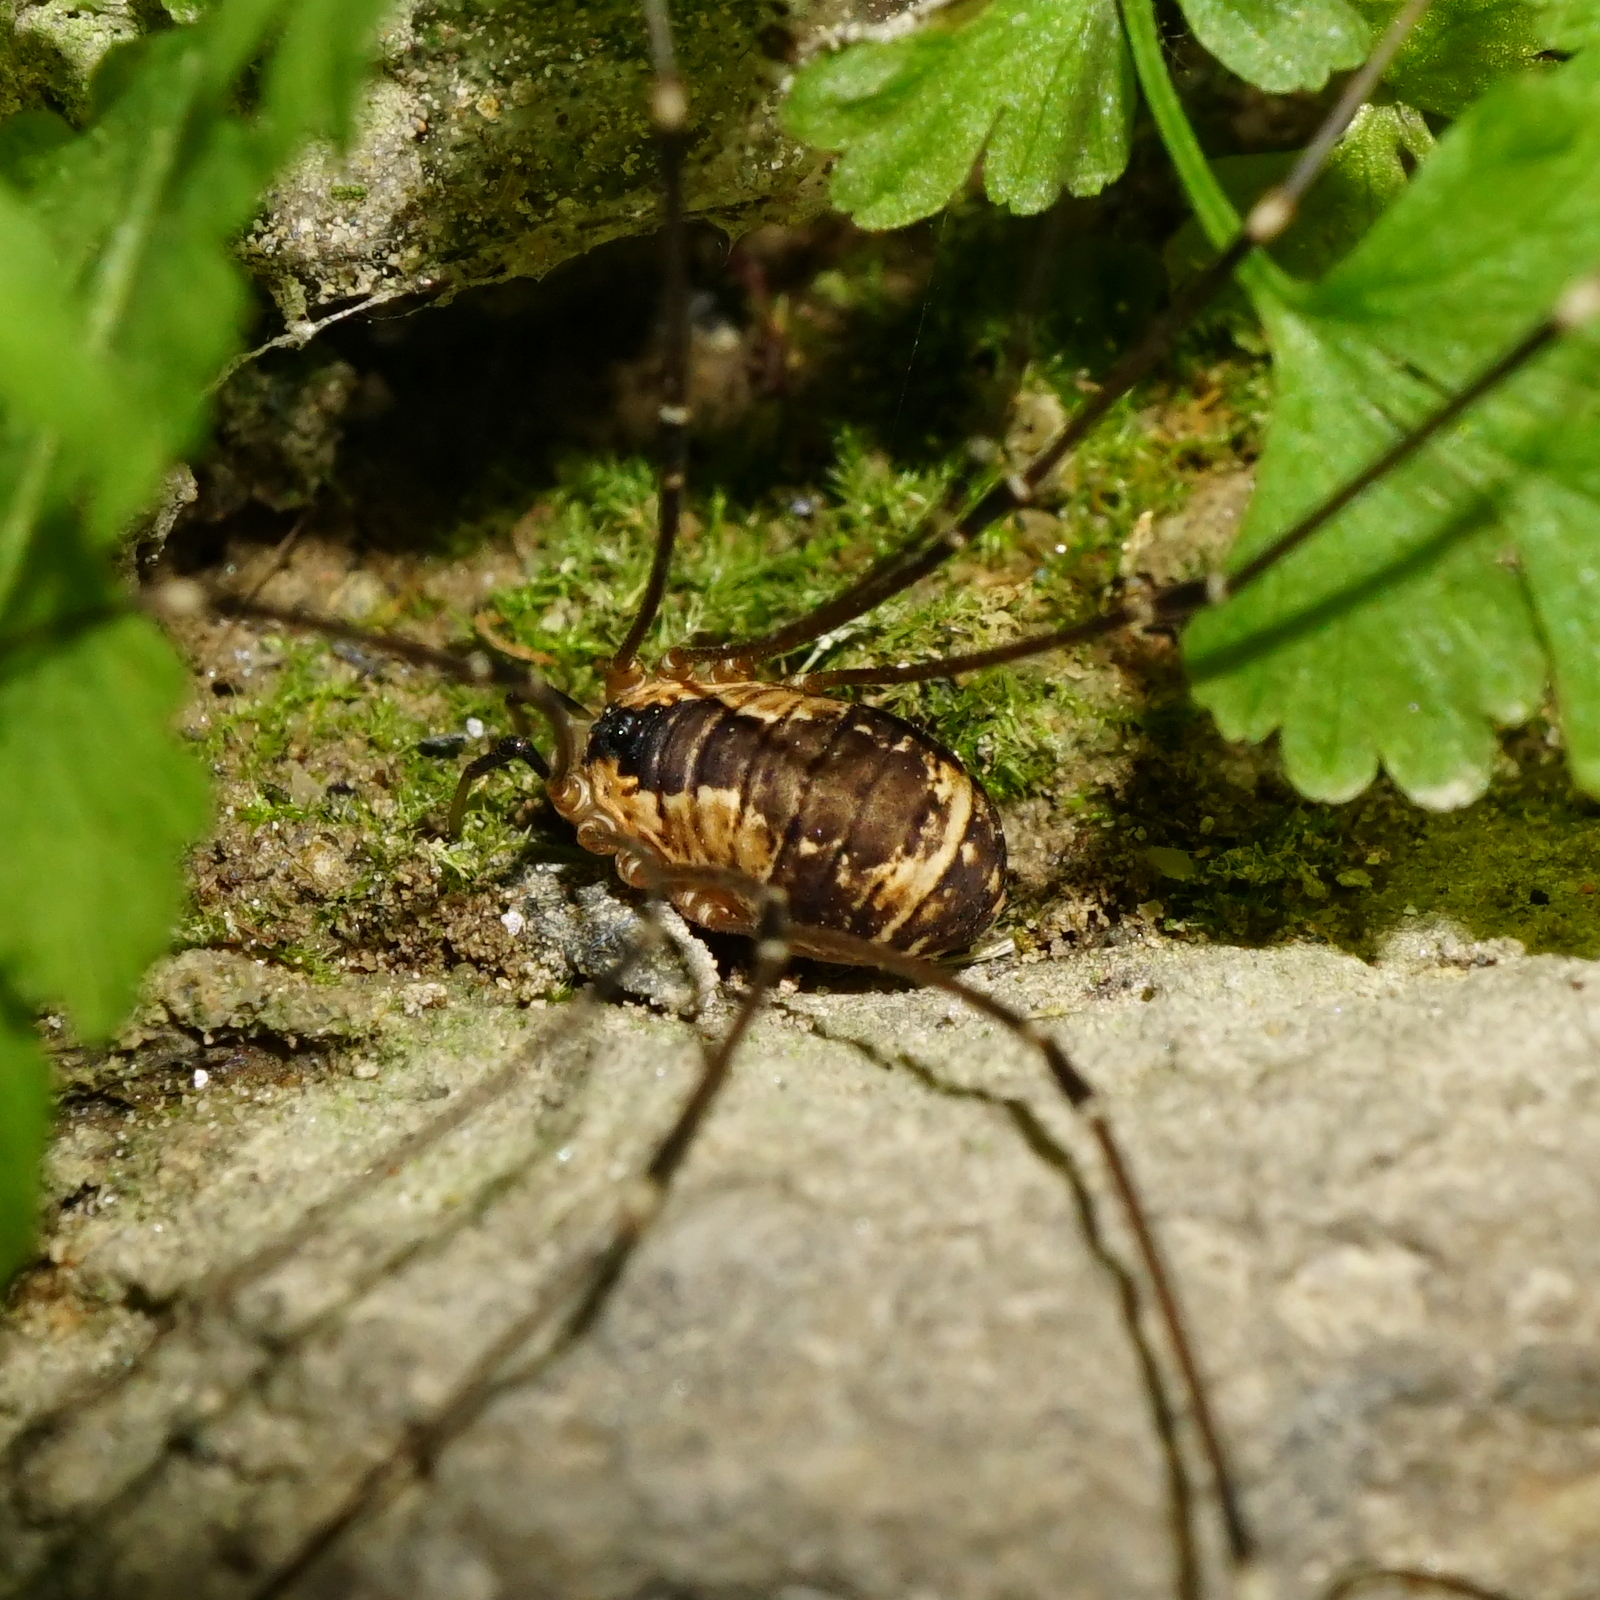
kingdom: Animalia
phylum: Arthropoda
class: Arachnida
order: Opiliones
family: Sclerosomatidae
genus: Leiobunum
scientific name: Leiobunum rupestre
